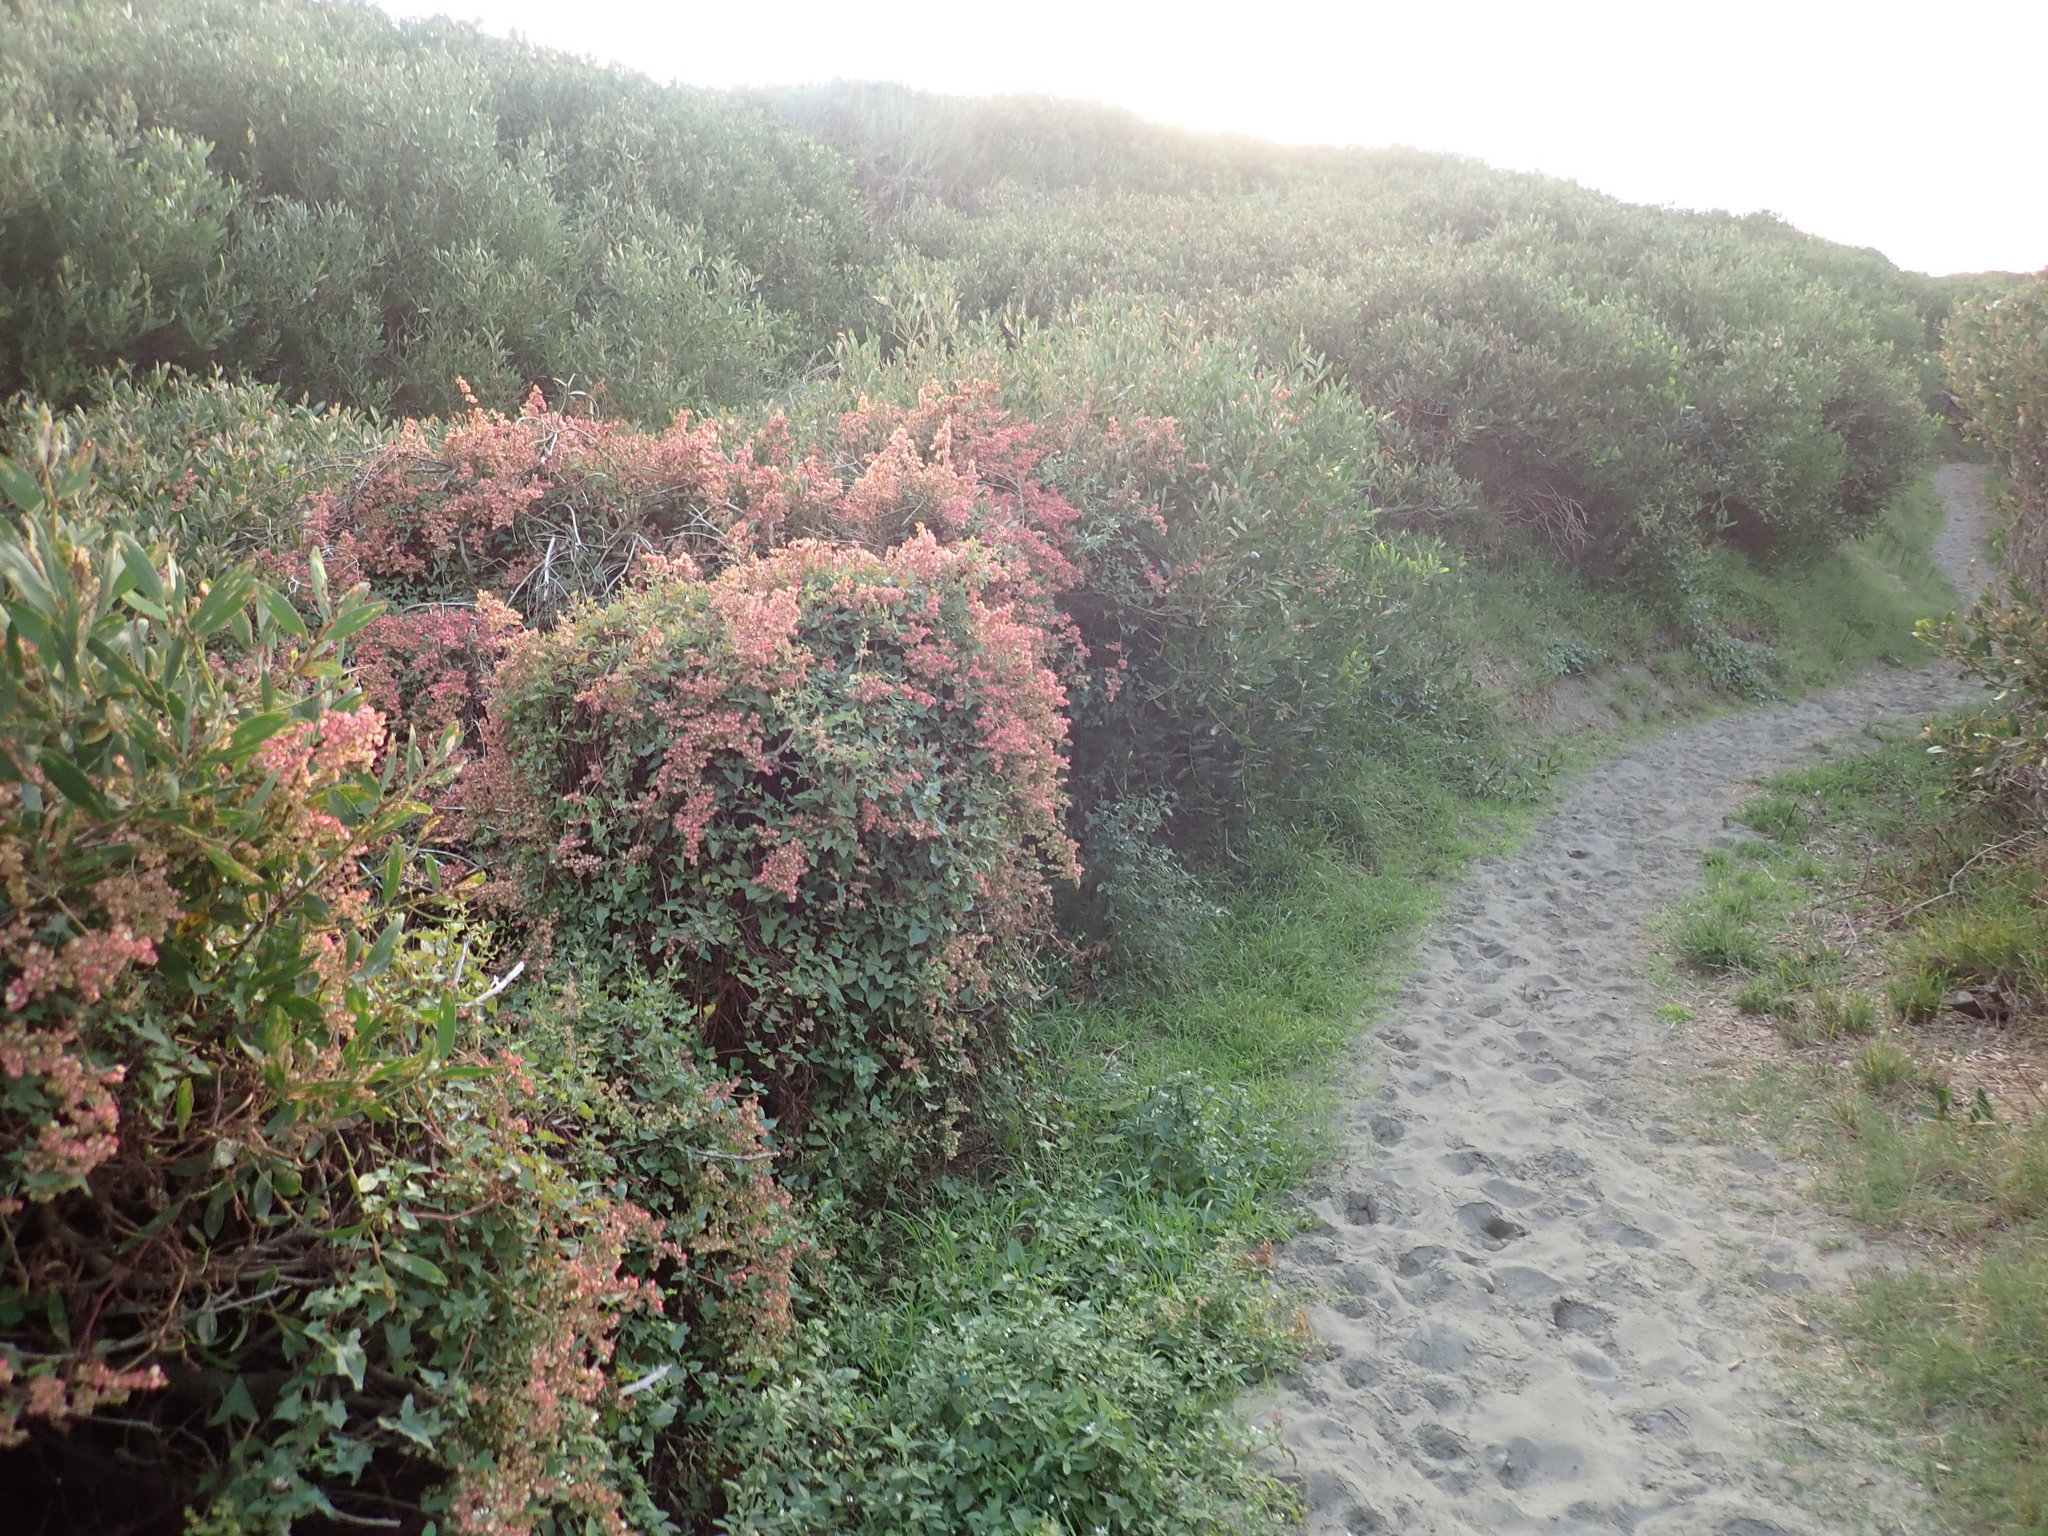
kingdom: Plantae
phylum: Tracheophyta
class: Magnoliopsida
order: Caryophyllales
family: Polygonaceae
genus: Rumex
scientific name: Rumex sagittatus
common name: Climbing dock
